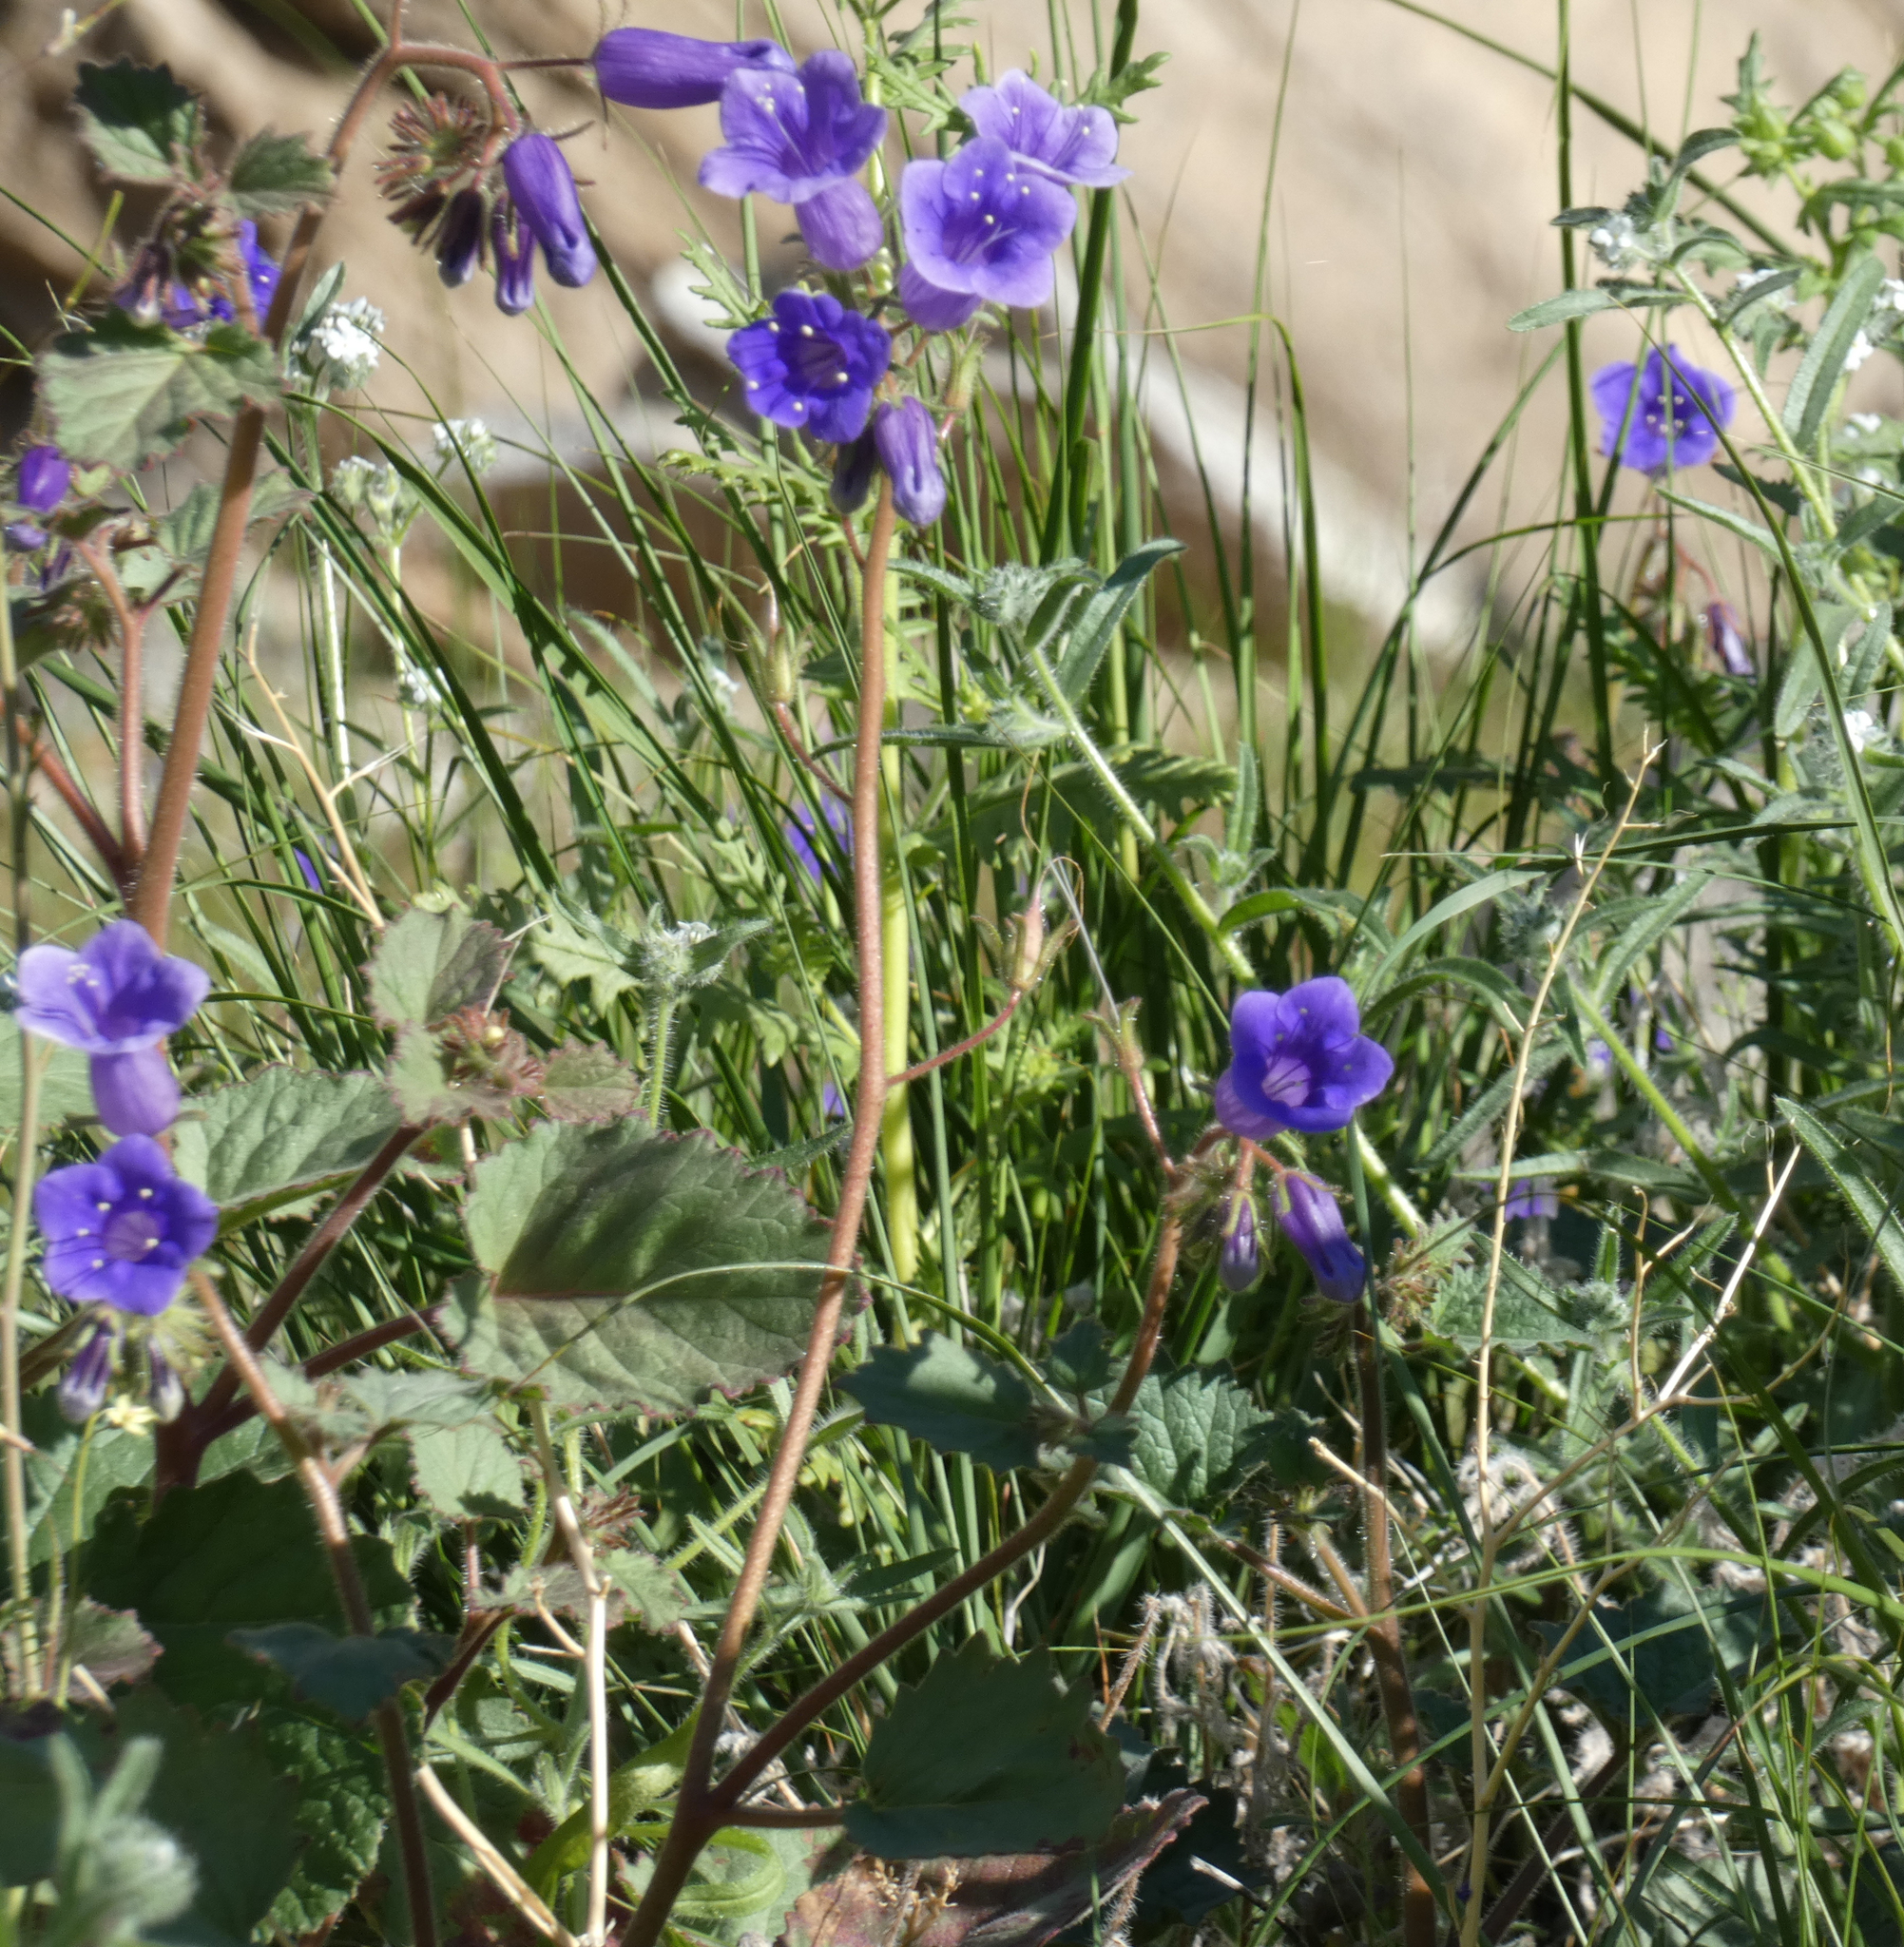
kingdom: Plantae
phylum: Tracheophyta
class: Magnoliopsida
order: Boraginales
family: Hydrophyllaceae
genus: Phacelia
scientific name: Phacelia minor
